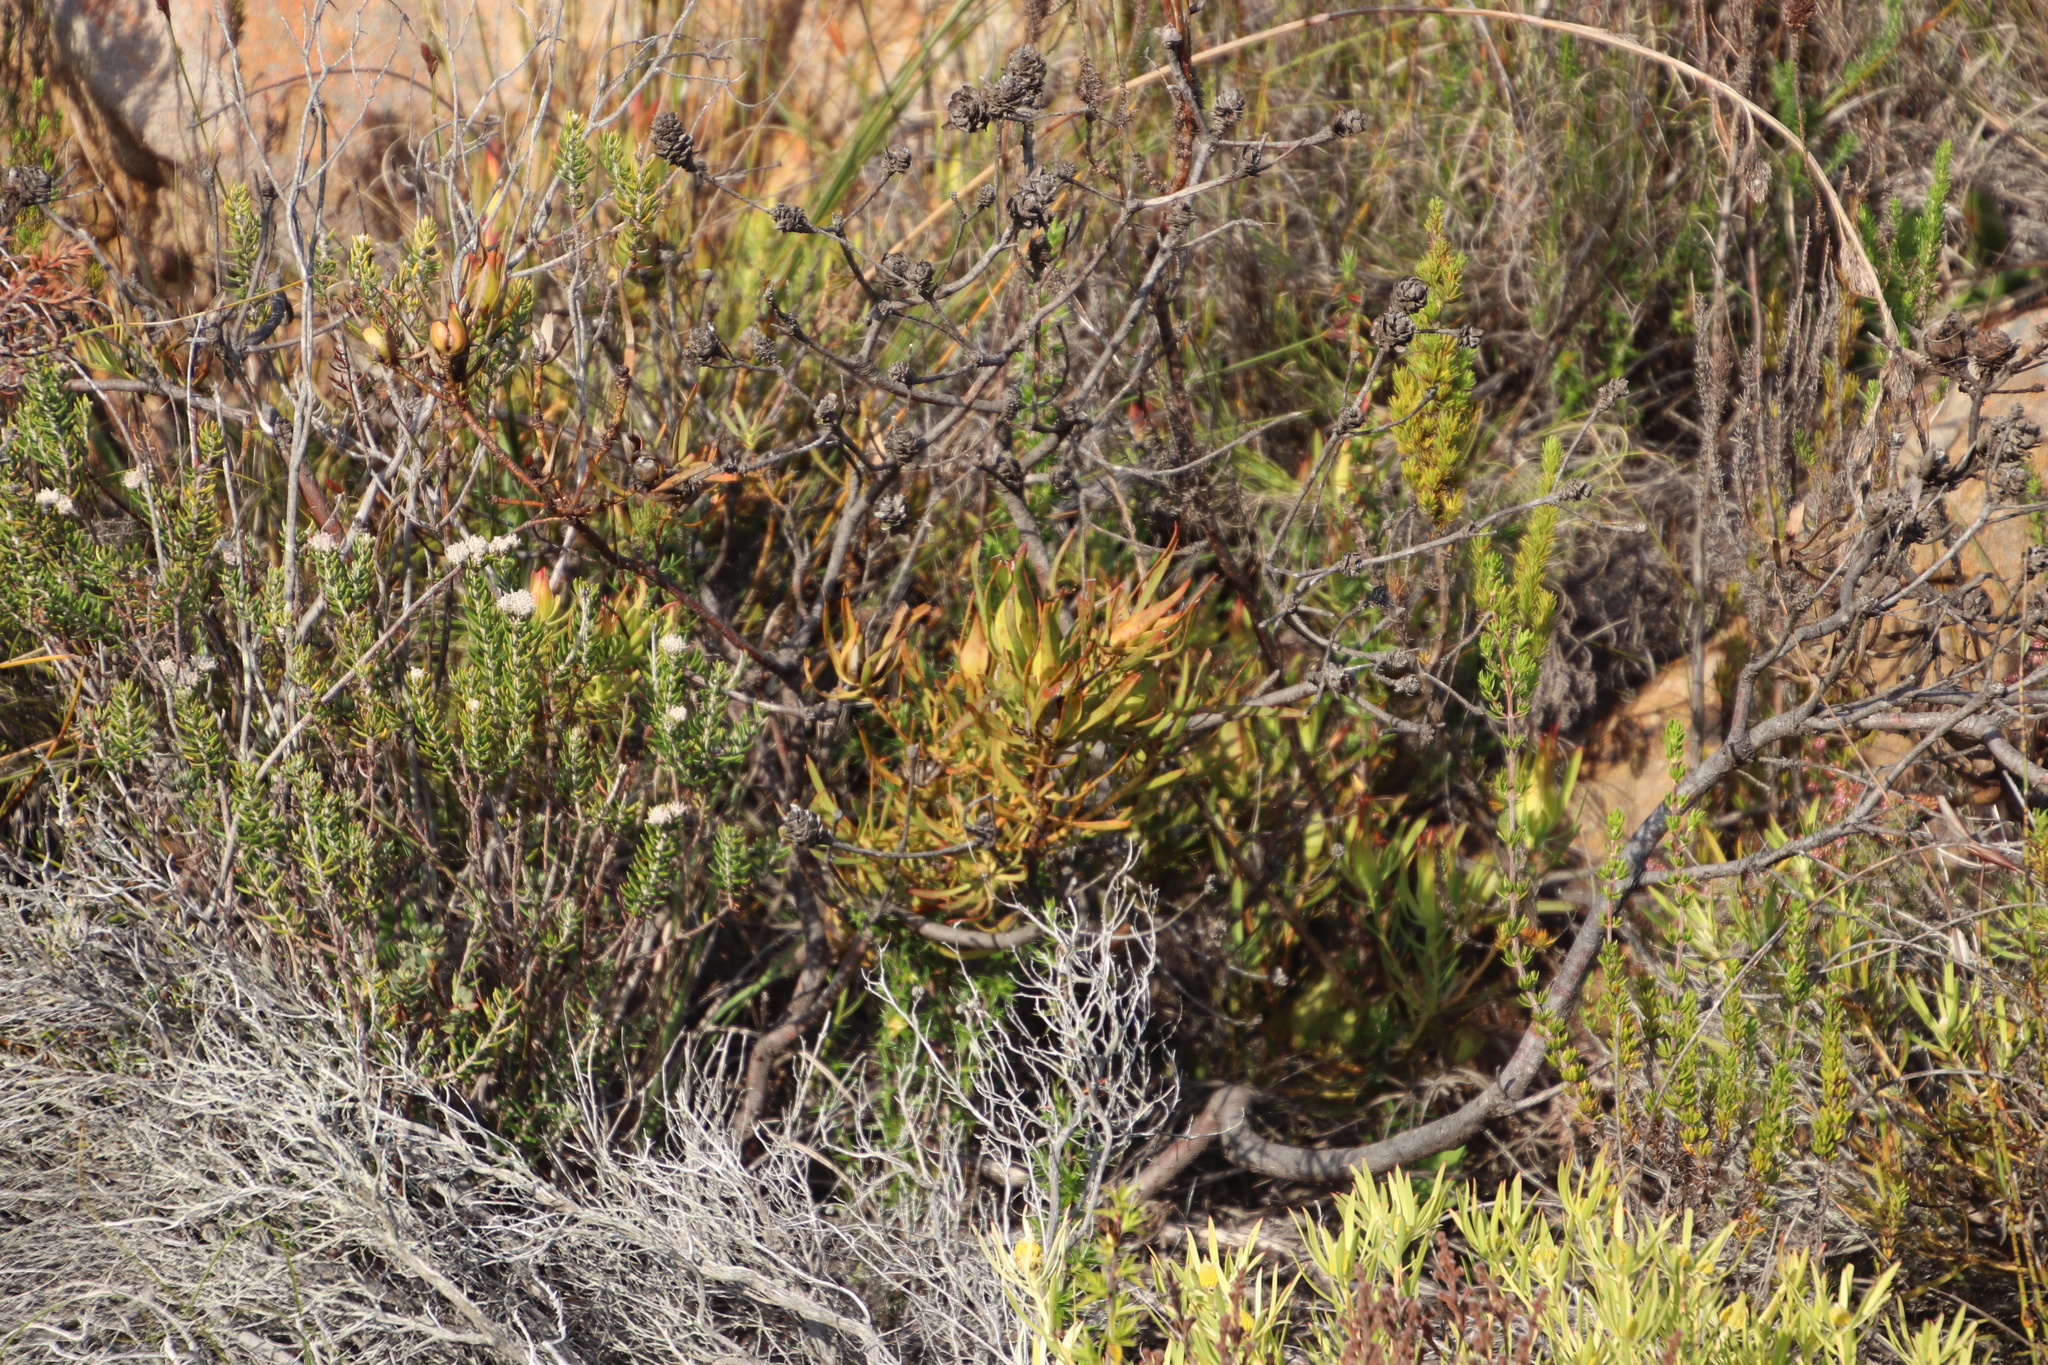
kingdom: Plantae
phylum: Tracheophyta
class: Magnoliopsida
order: Proteales
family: Proteaceae
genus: Leucadendron
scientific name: Leucadendron salignum
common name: Common sunshine conebush
